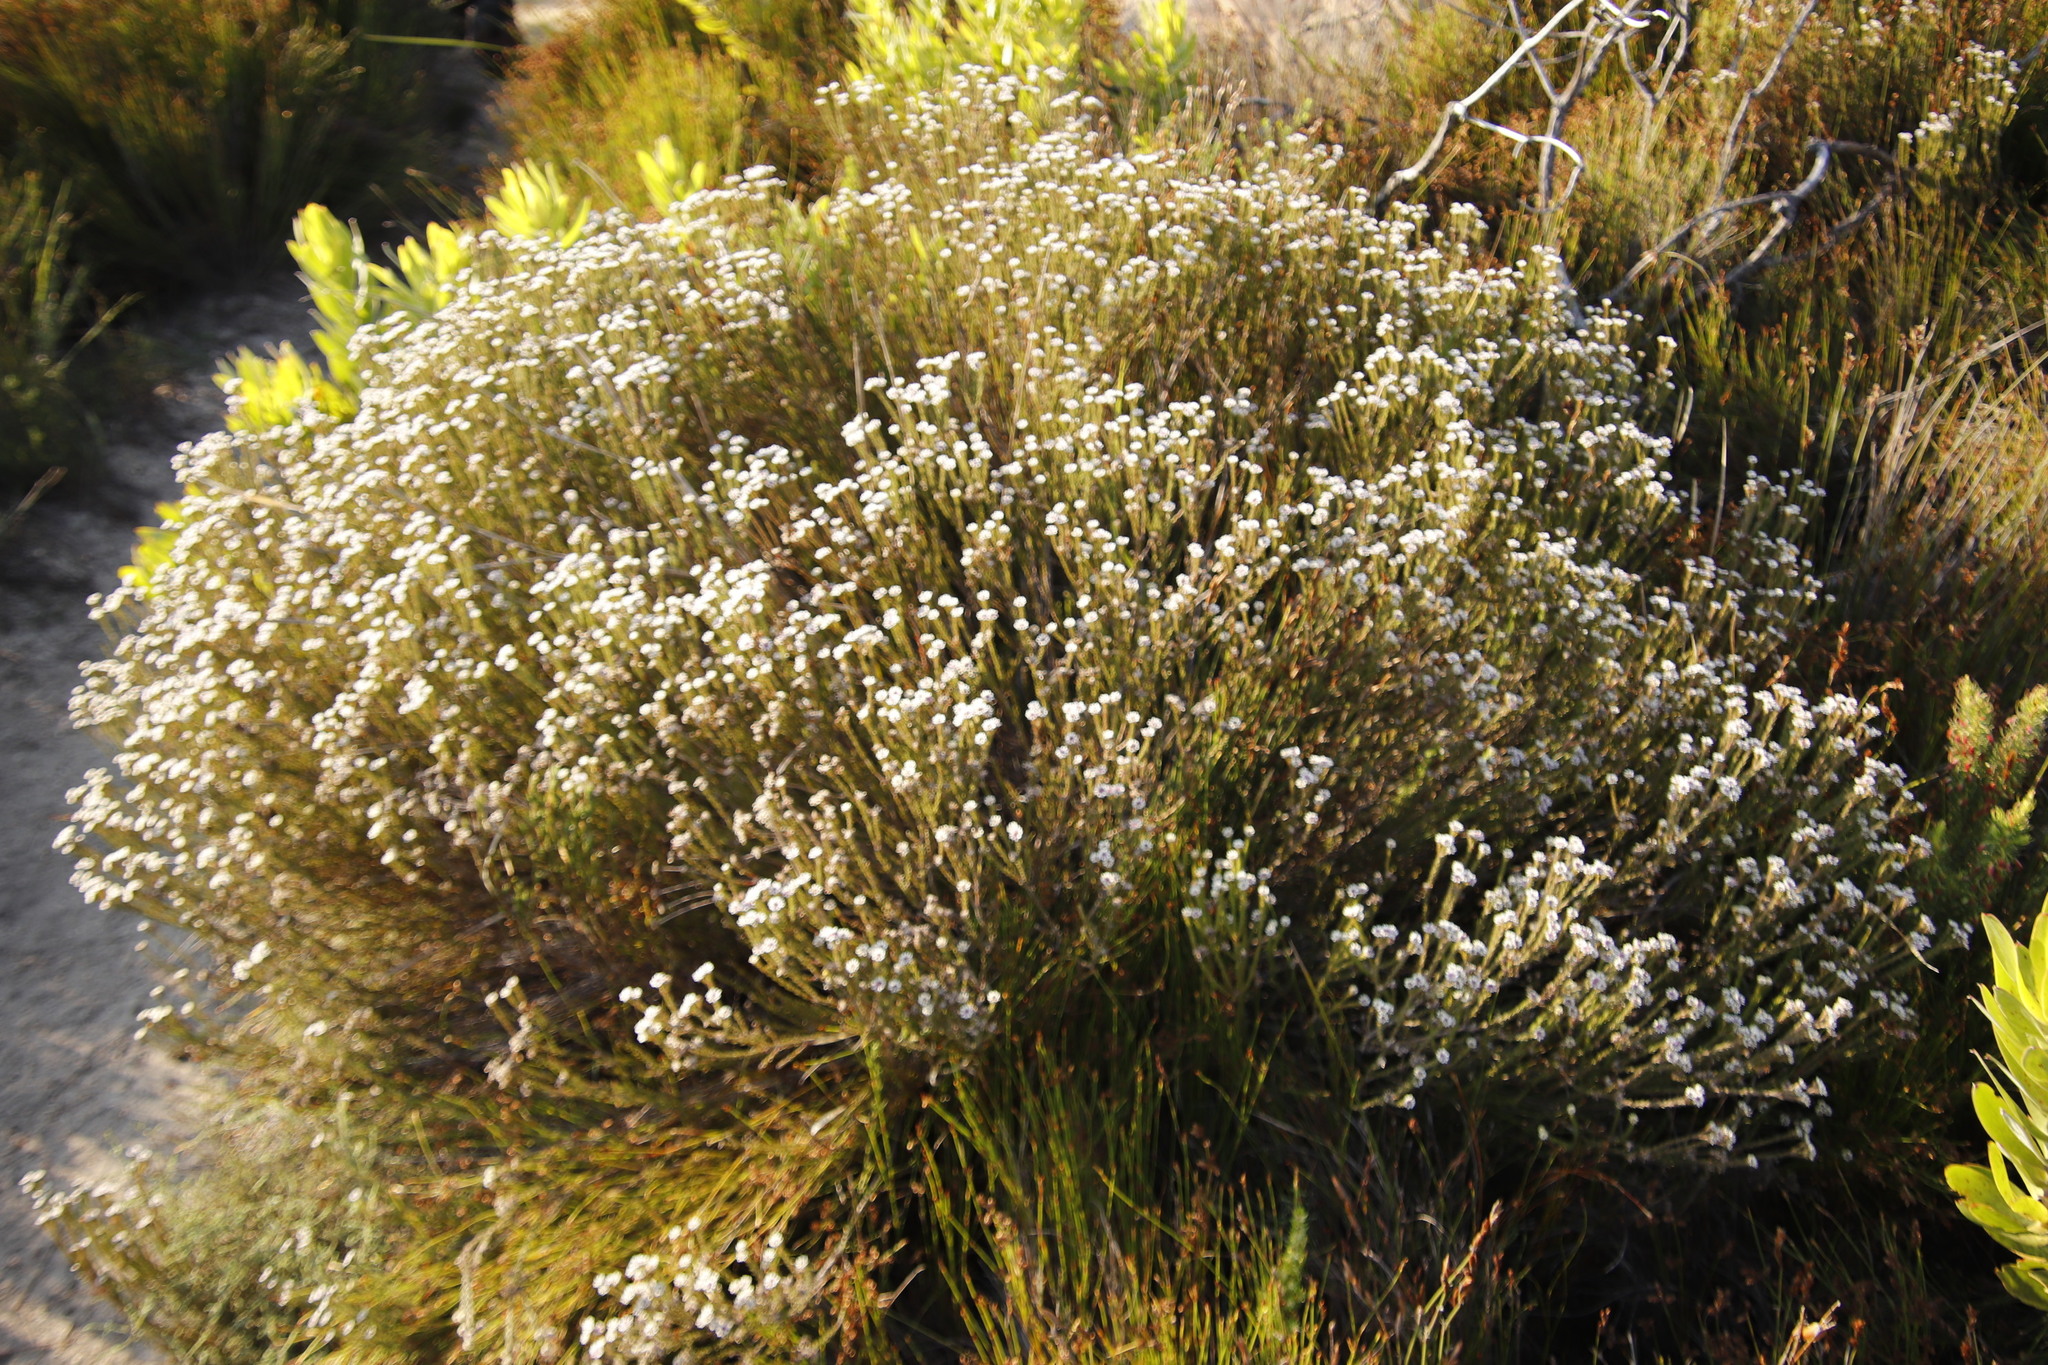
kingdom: Plantae
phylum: Tracheophyta
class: Magnoliopsida
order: Bruniales
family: Bruniaceae
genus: Staavia
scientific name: Staavia radiata
